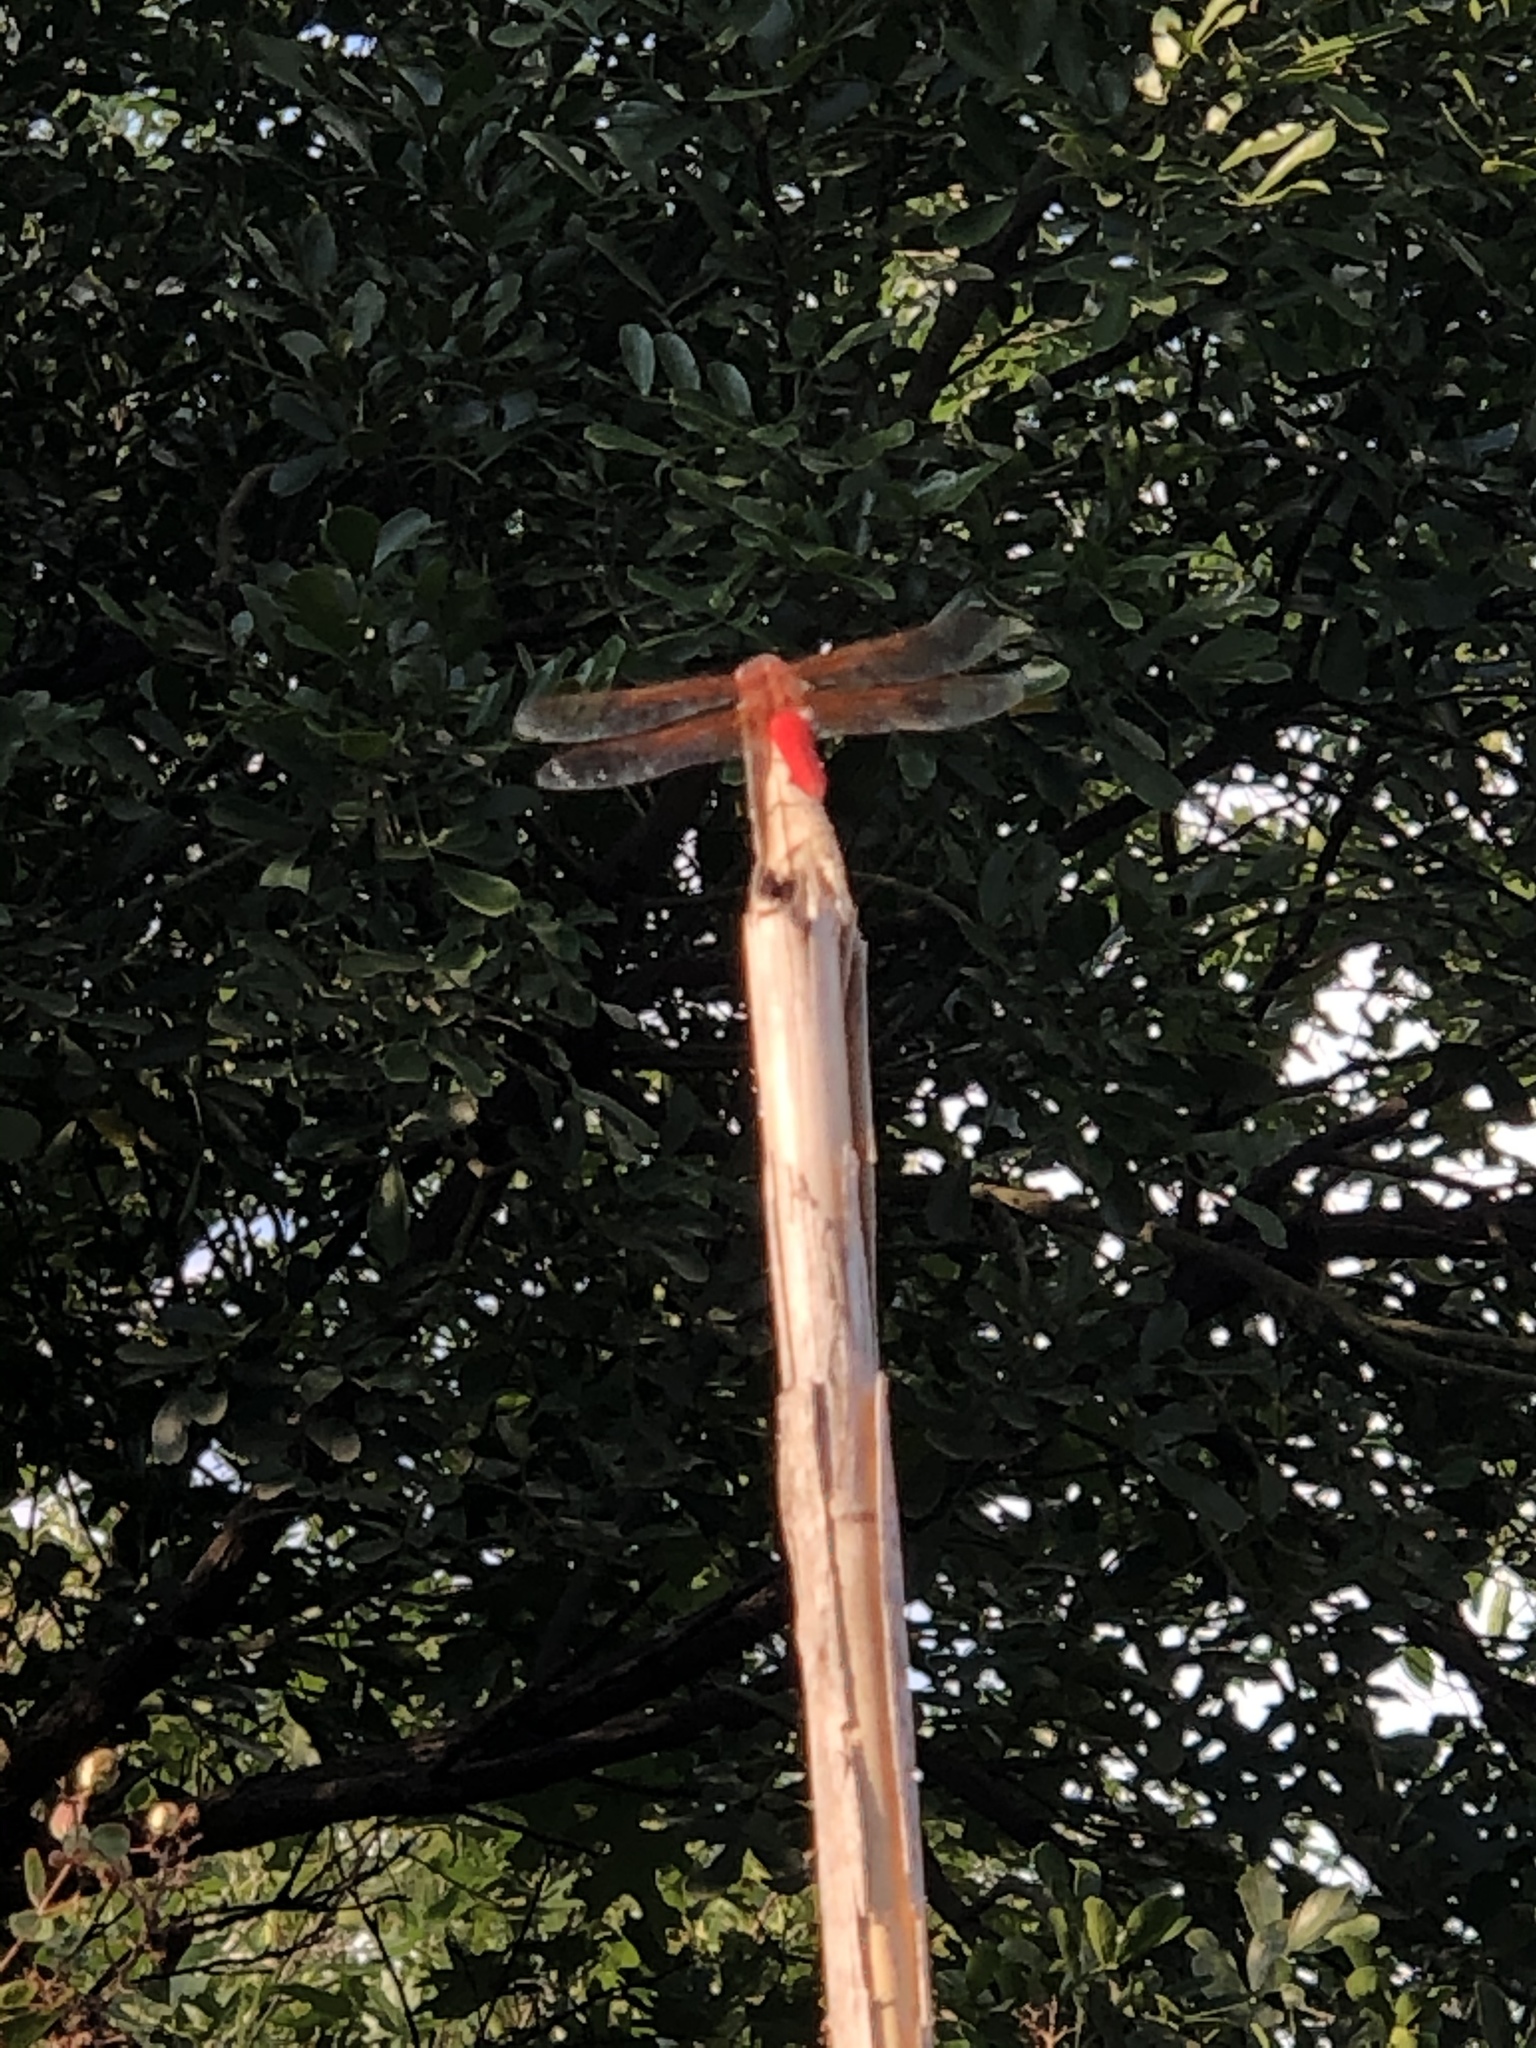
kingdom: Animalia
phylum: Arthropoda
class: Insecta
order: Odonata
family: Libellulidae
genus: Libellula
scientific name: Libellula croceipennis
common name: Neon skimmer
